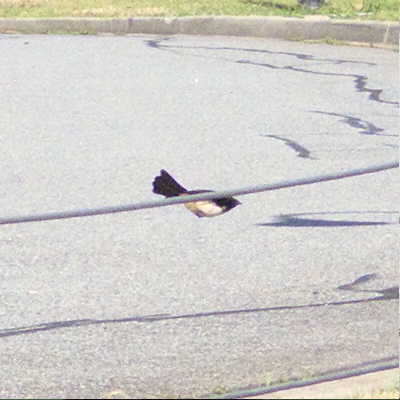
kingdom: Animalia
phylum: Chordata
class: Aves
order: Passeriformes
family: Rhipiduridae
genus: Rhipidura
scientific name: Rhipidura leucophrys
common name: Willie wagtail
